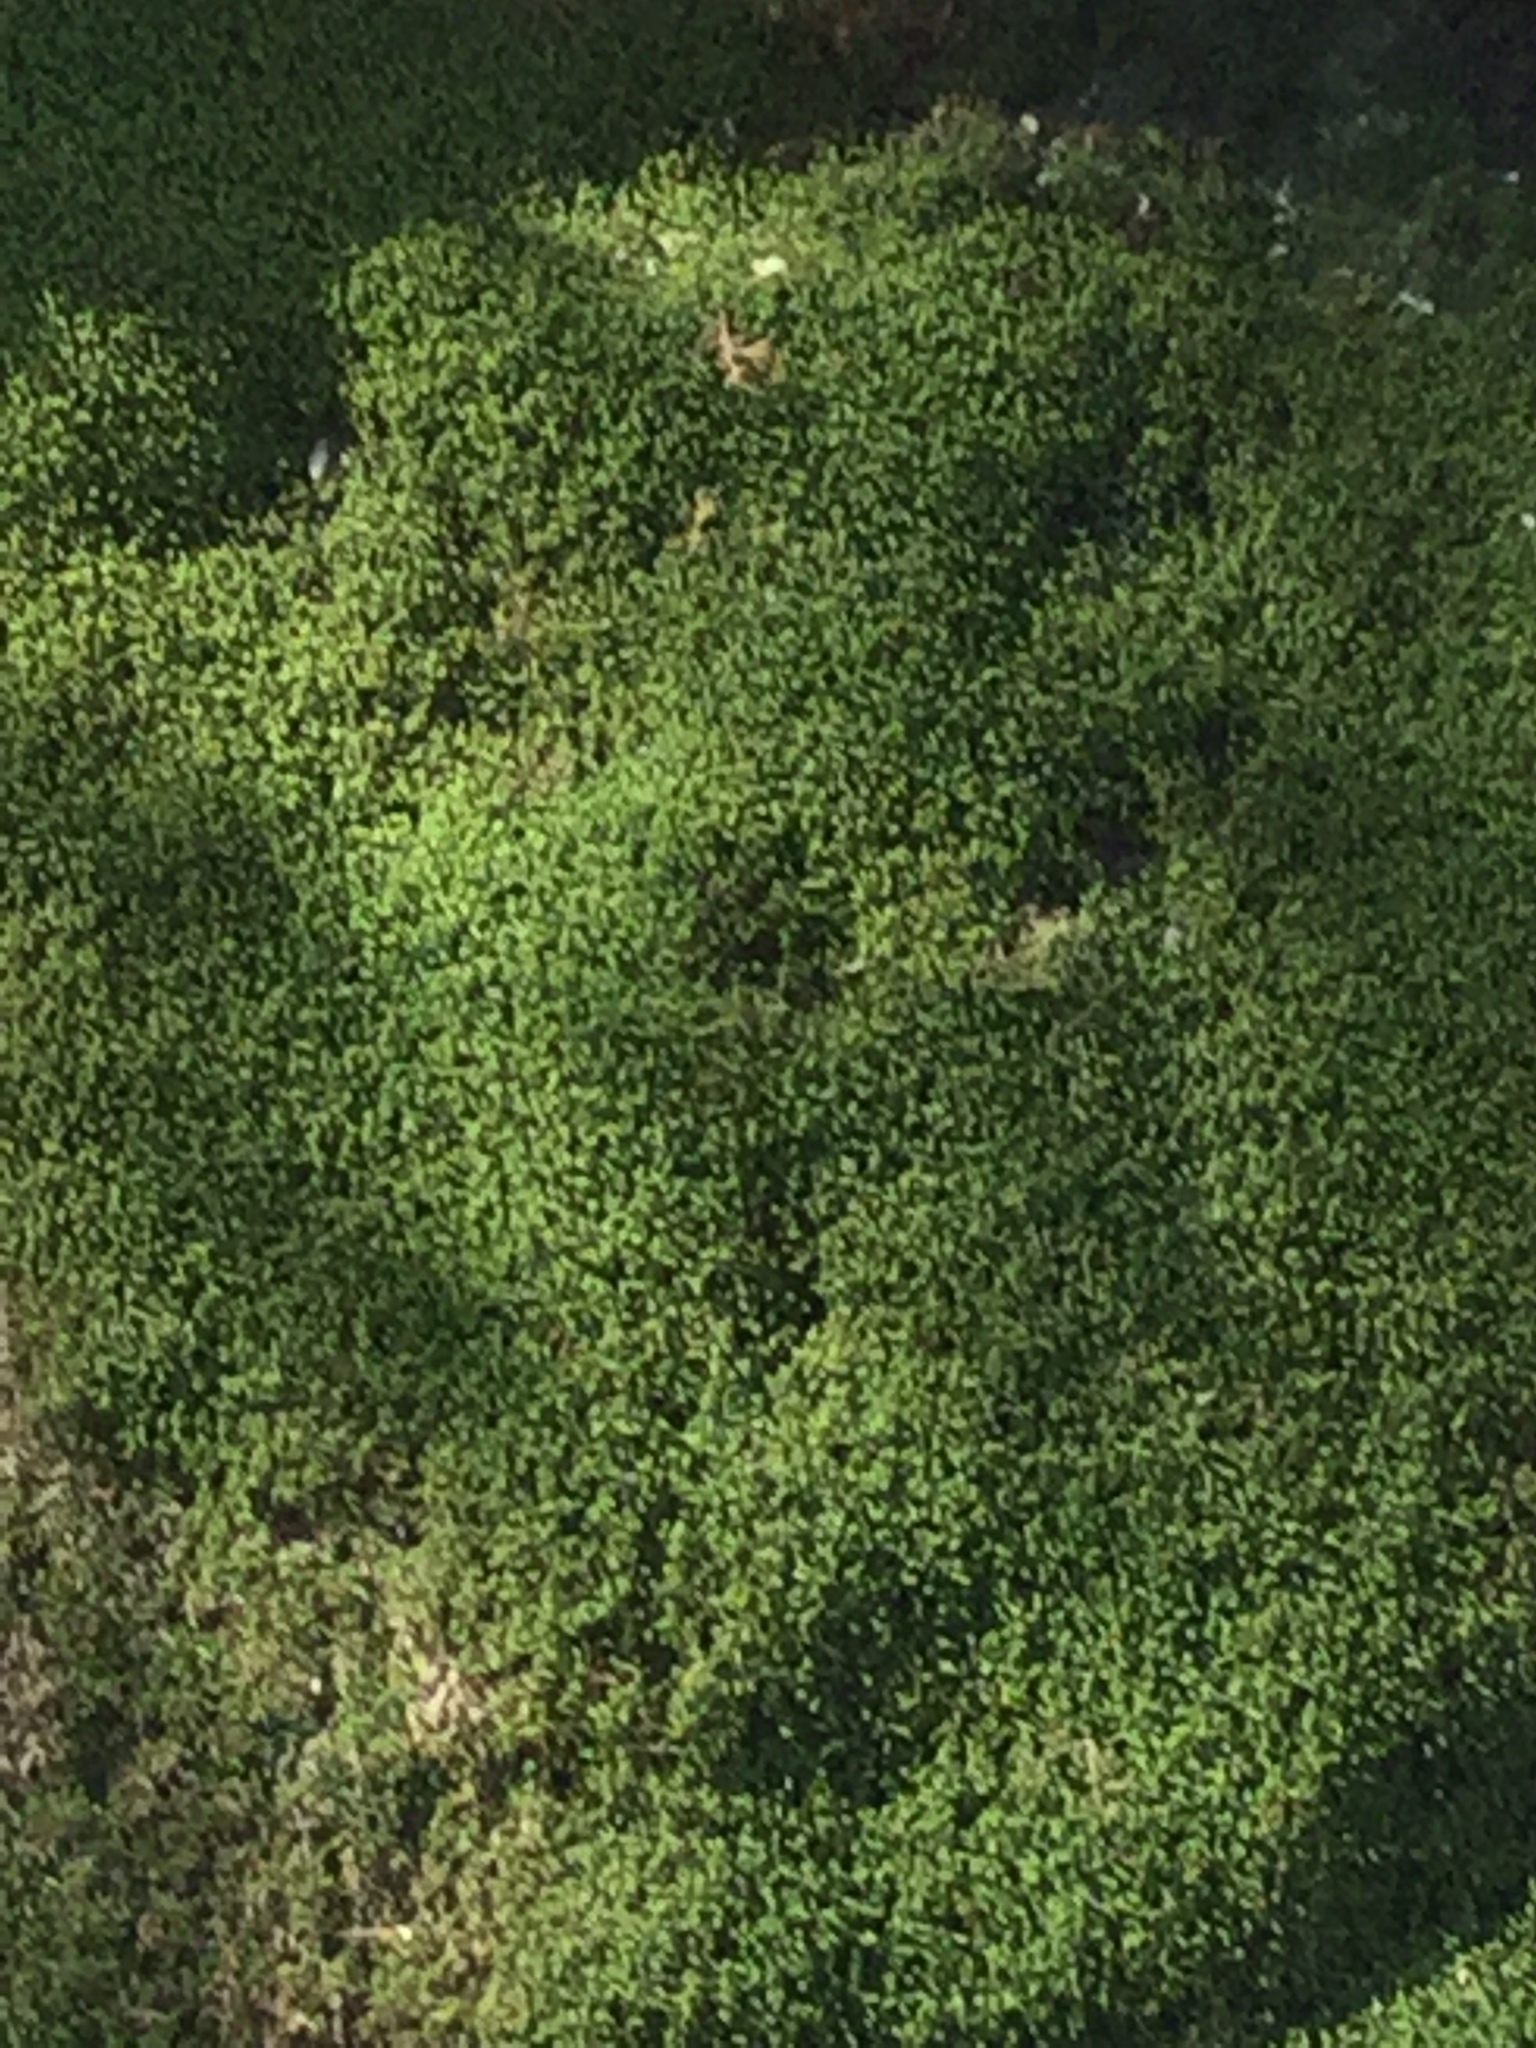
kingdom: Plantae
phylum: Bryophyta
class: Bryopsida
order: Hypnales
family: Neckeraceae
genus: Pseudanomodon
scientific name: Pseudanomodon attenuatus
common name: Tree-skirt moss
